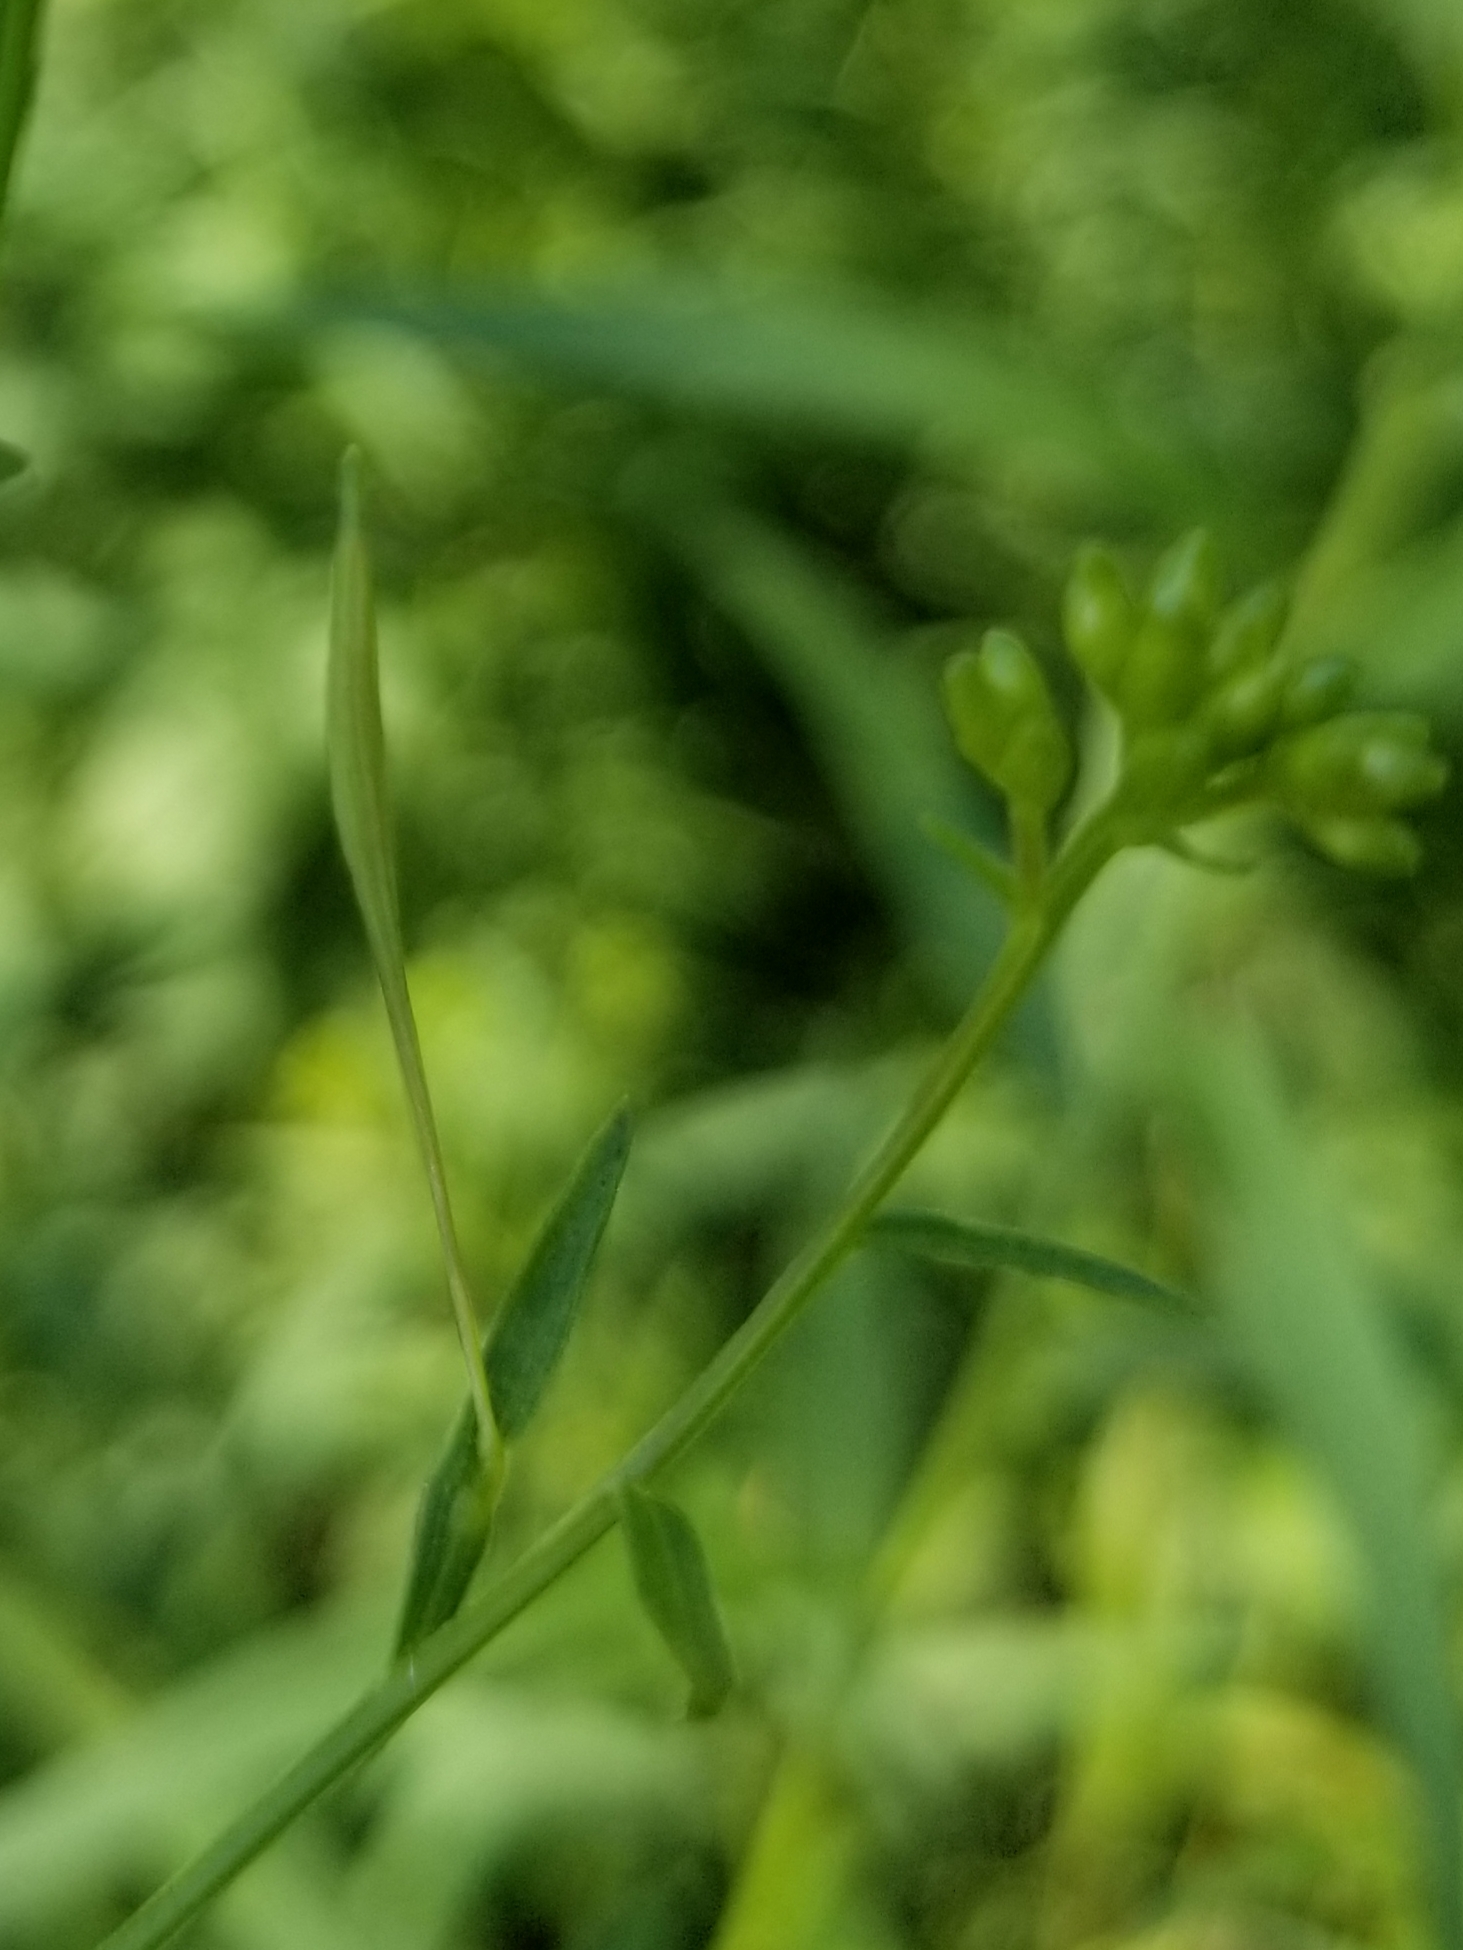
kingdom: Animalia
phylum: Arthropoda
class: Insecta
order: Diptera
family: Cecidomyiidae
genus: Rhopalomyia
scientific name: Rhopalomyia pedicellata
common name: Goldentop pedicellate gall midge
